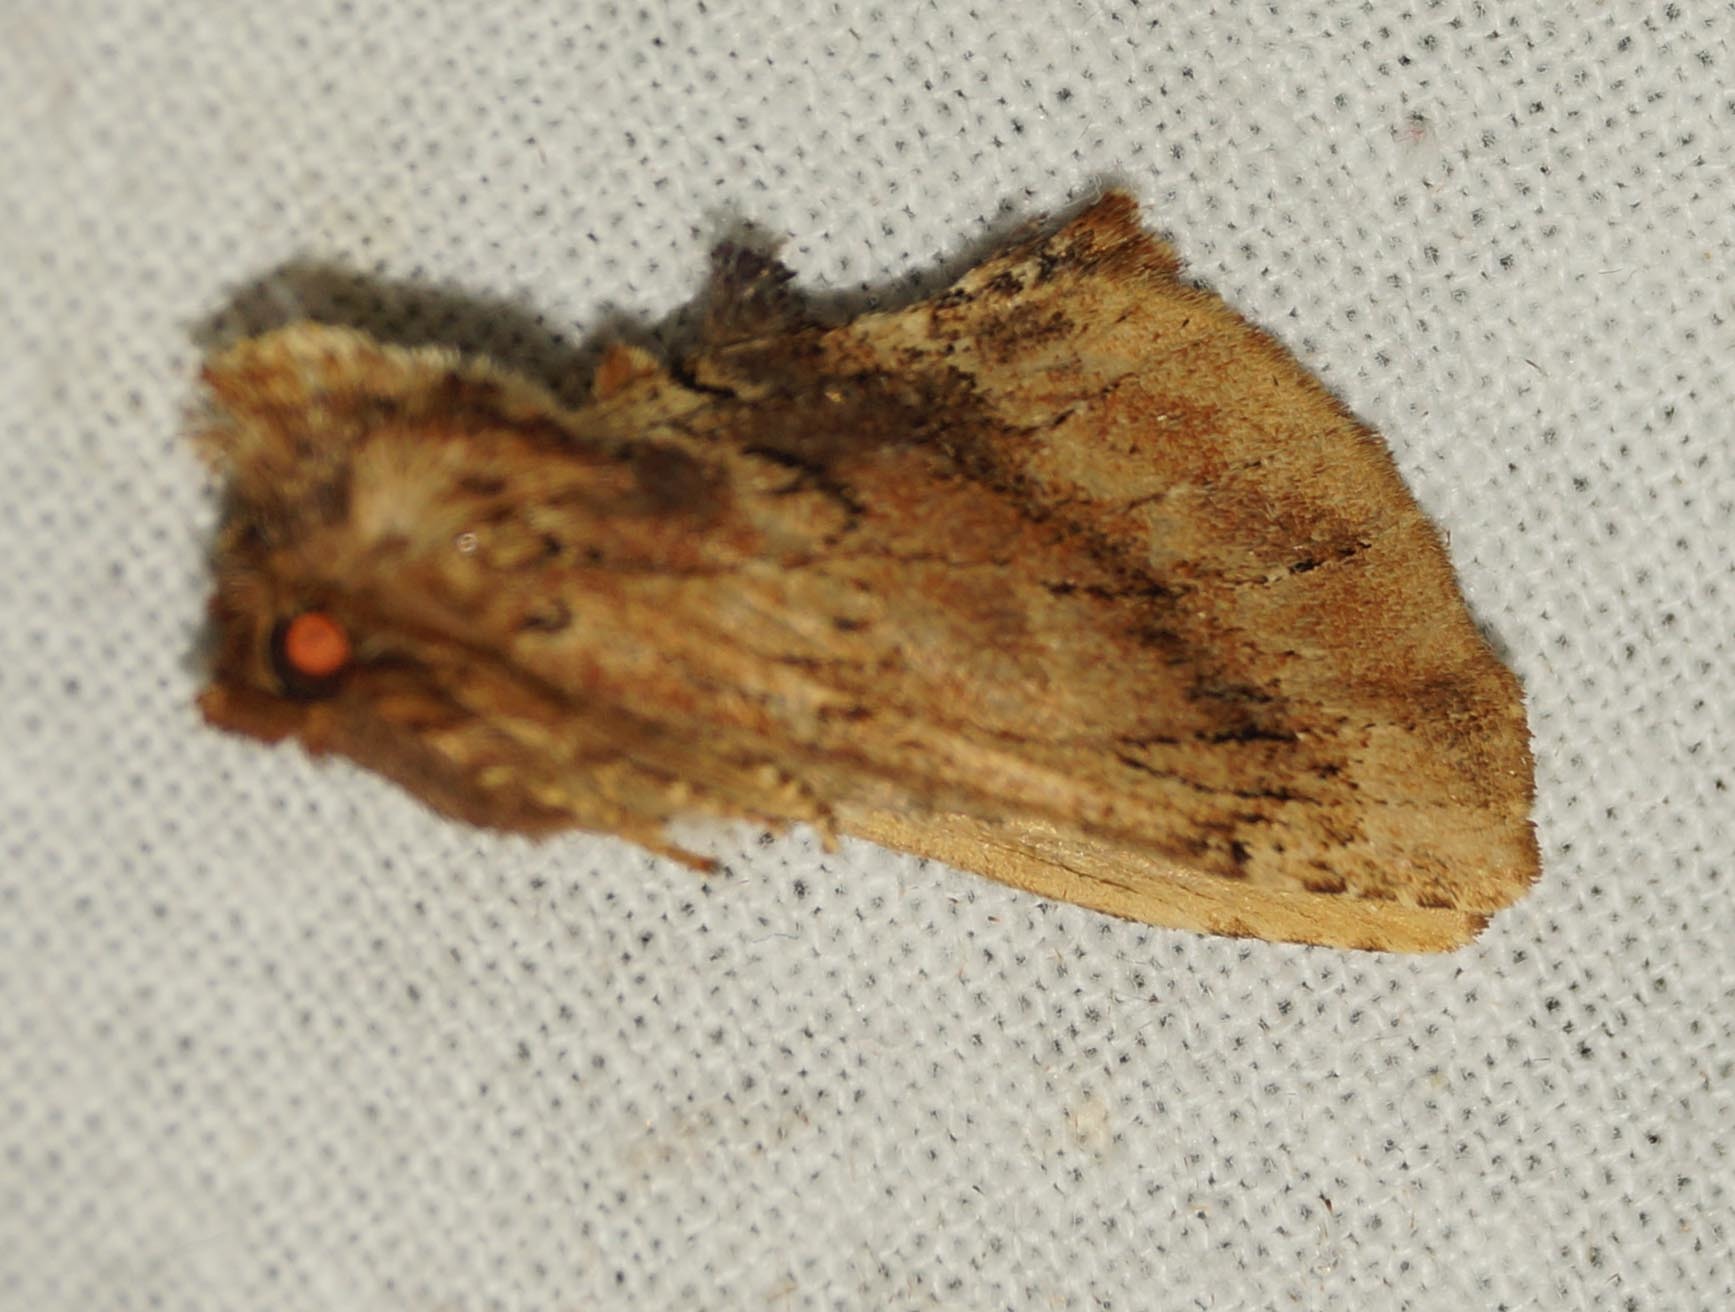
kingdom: Animalia
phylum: Arthropoda
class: Insecta
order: Lepidoptera
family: Notodontidae
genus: Ptilodon
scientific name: Ptilodon capucina
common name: Coxcomb prominent
